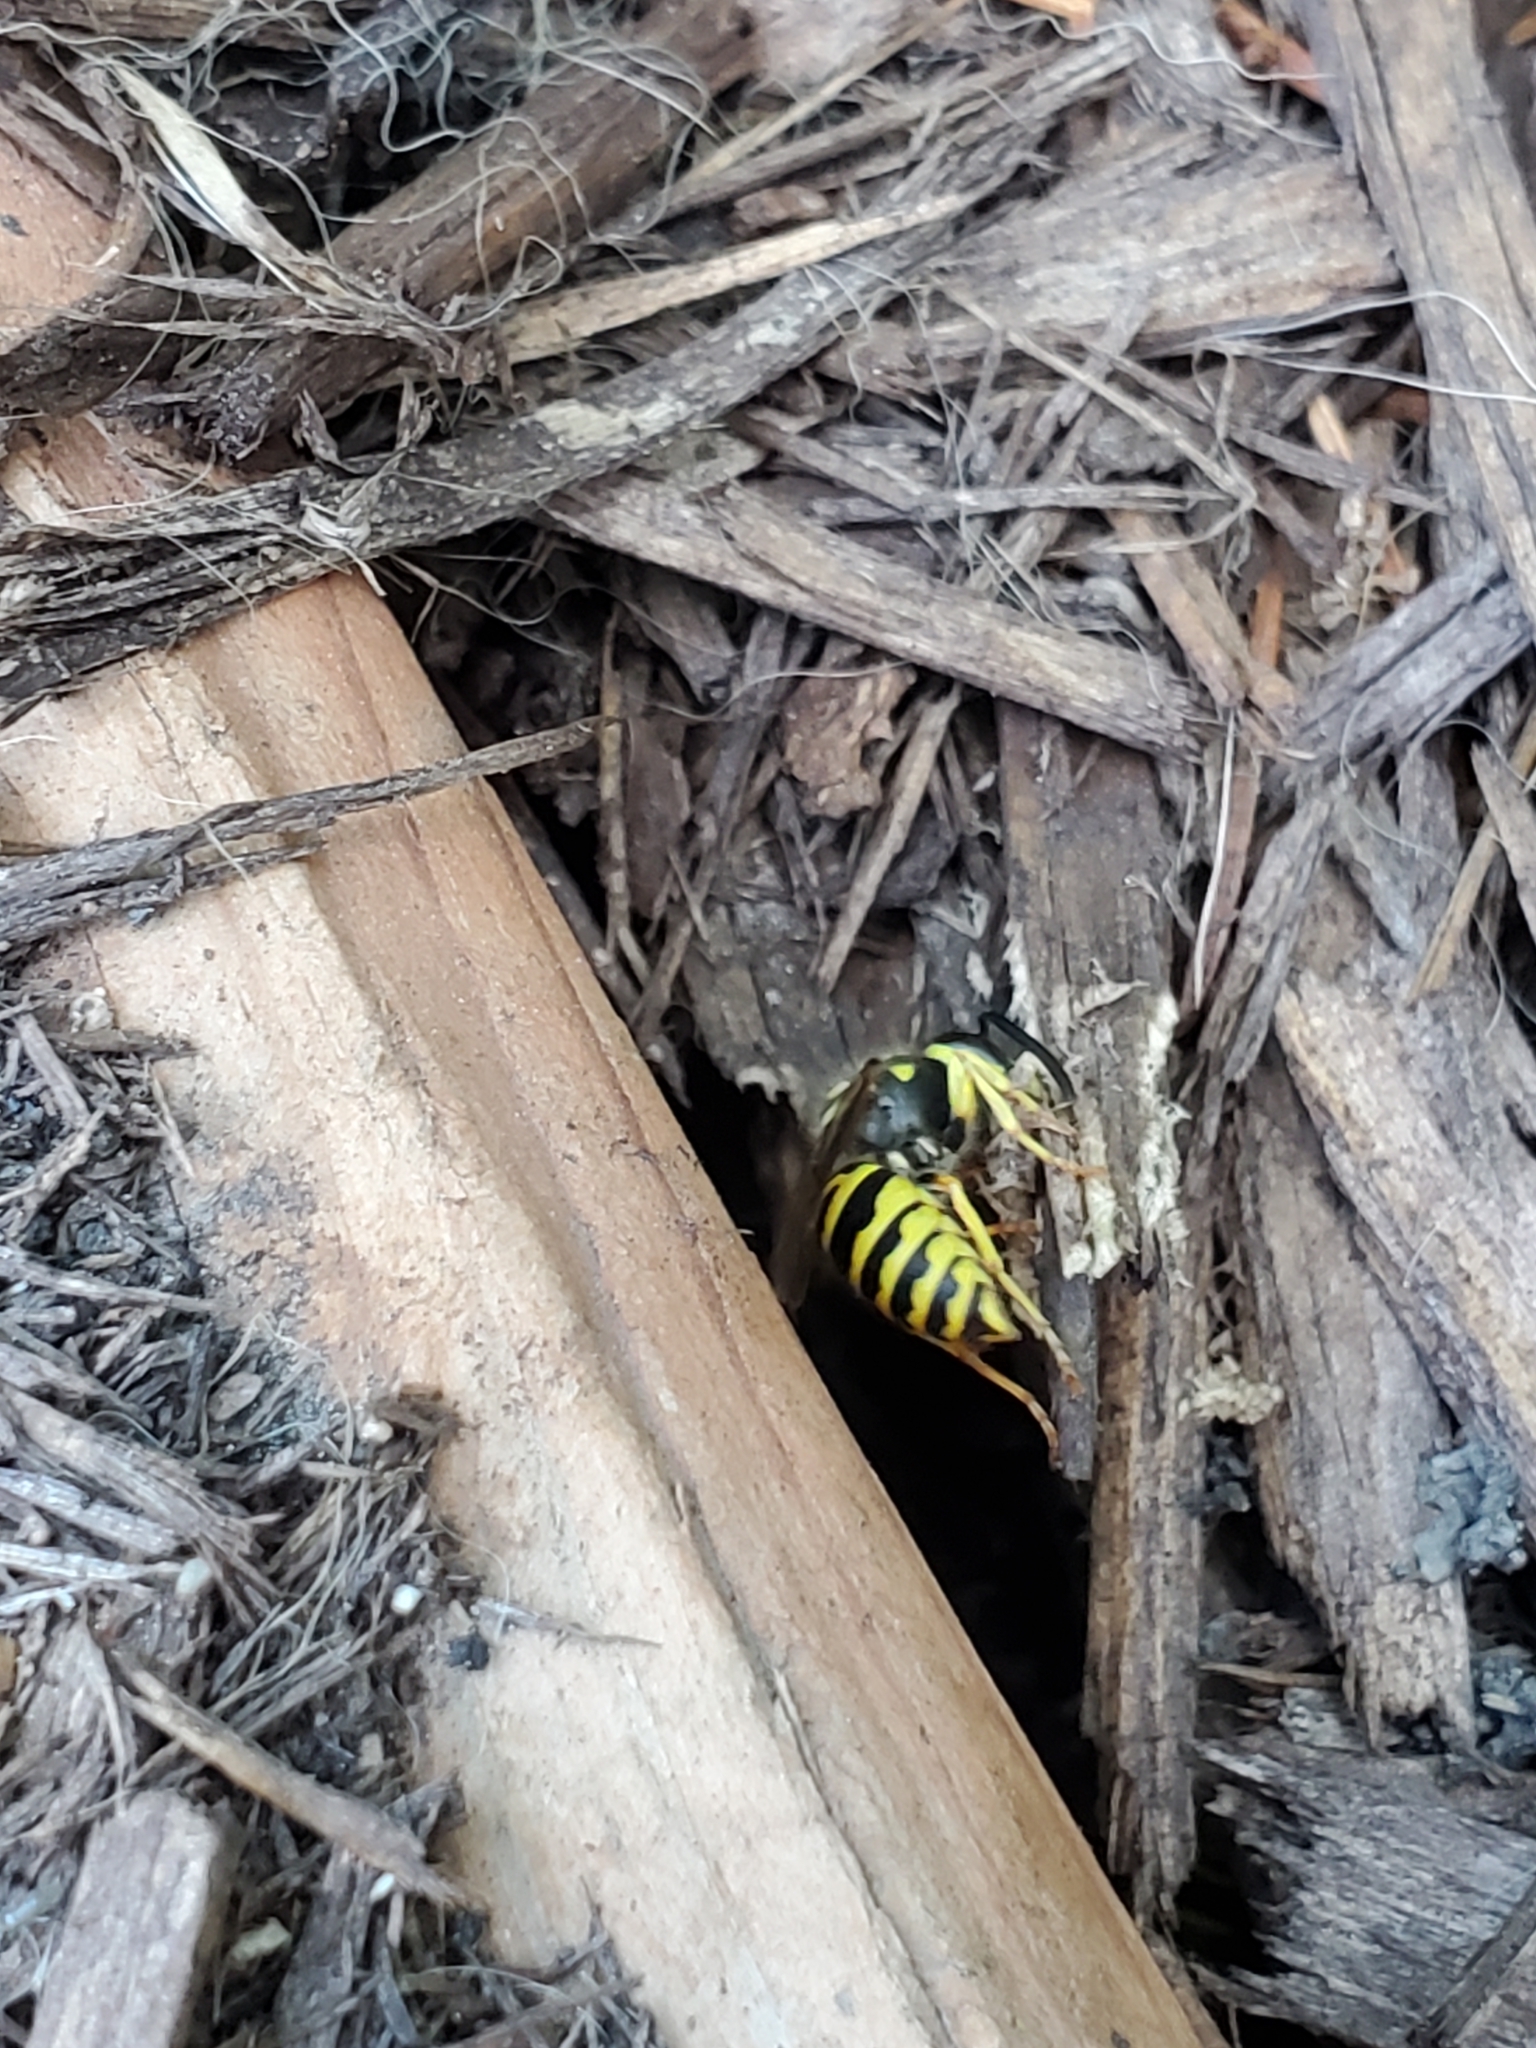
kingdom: Animalia
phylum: Arthropoda
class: Insecta
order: Hymenoptera
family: Vespidae
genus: Vespula
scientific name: Vespula maculifrons
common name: Eastern yellowjacket
